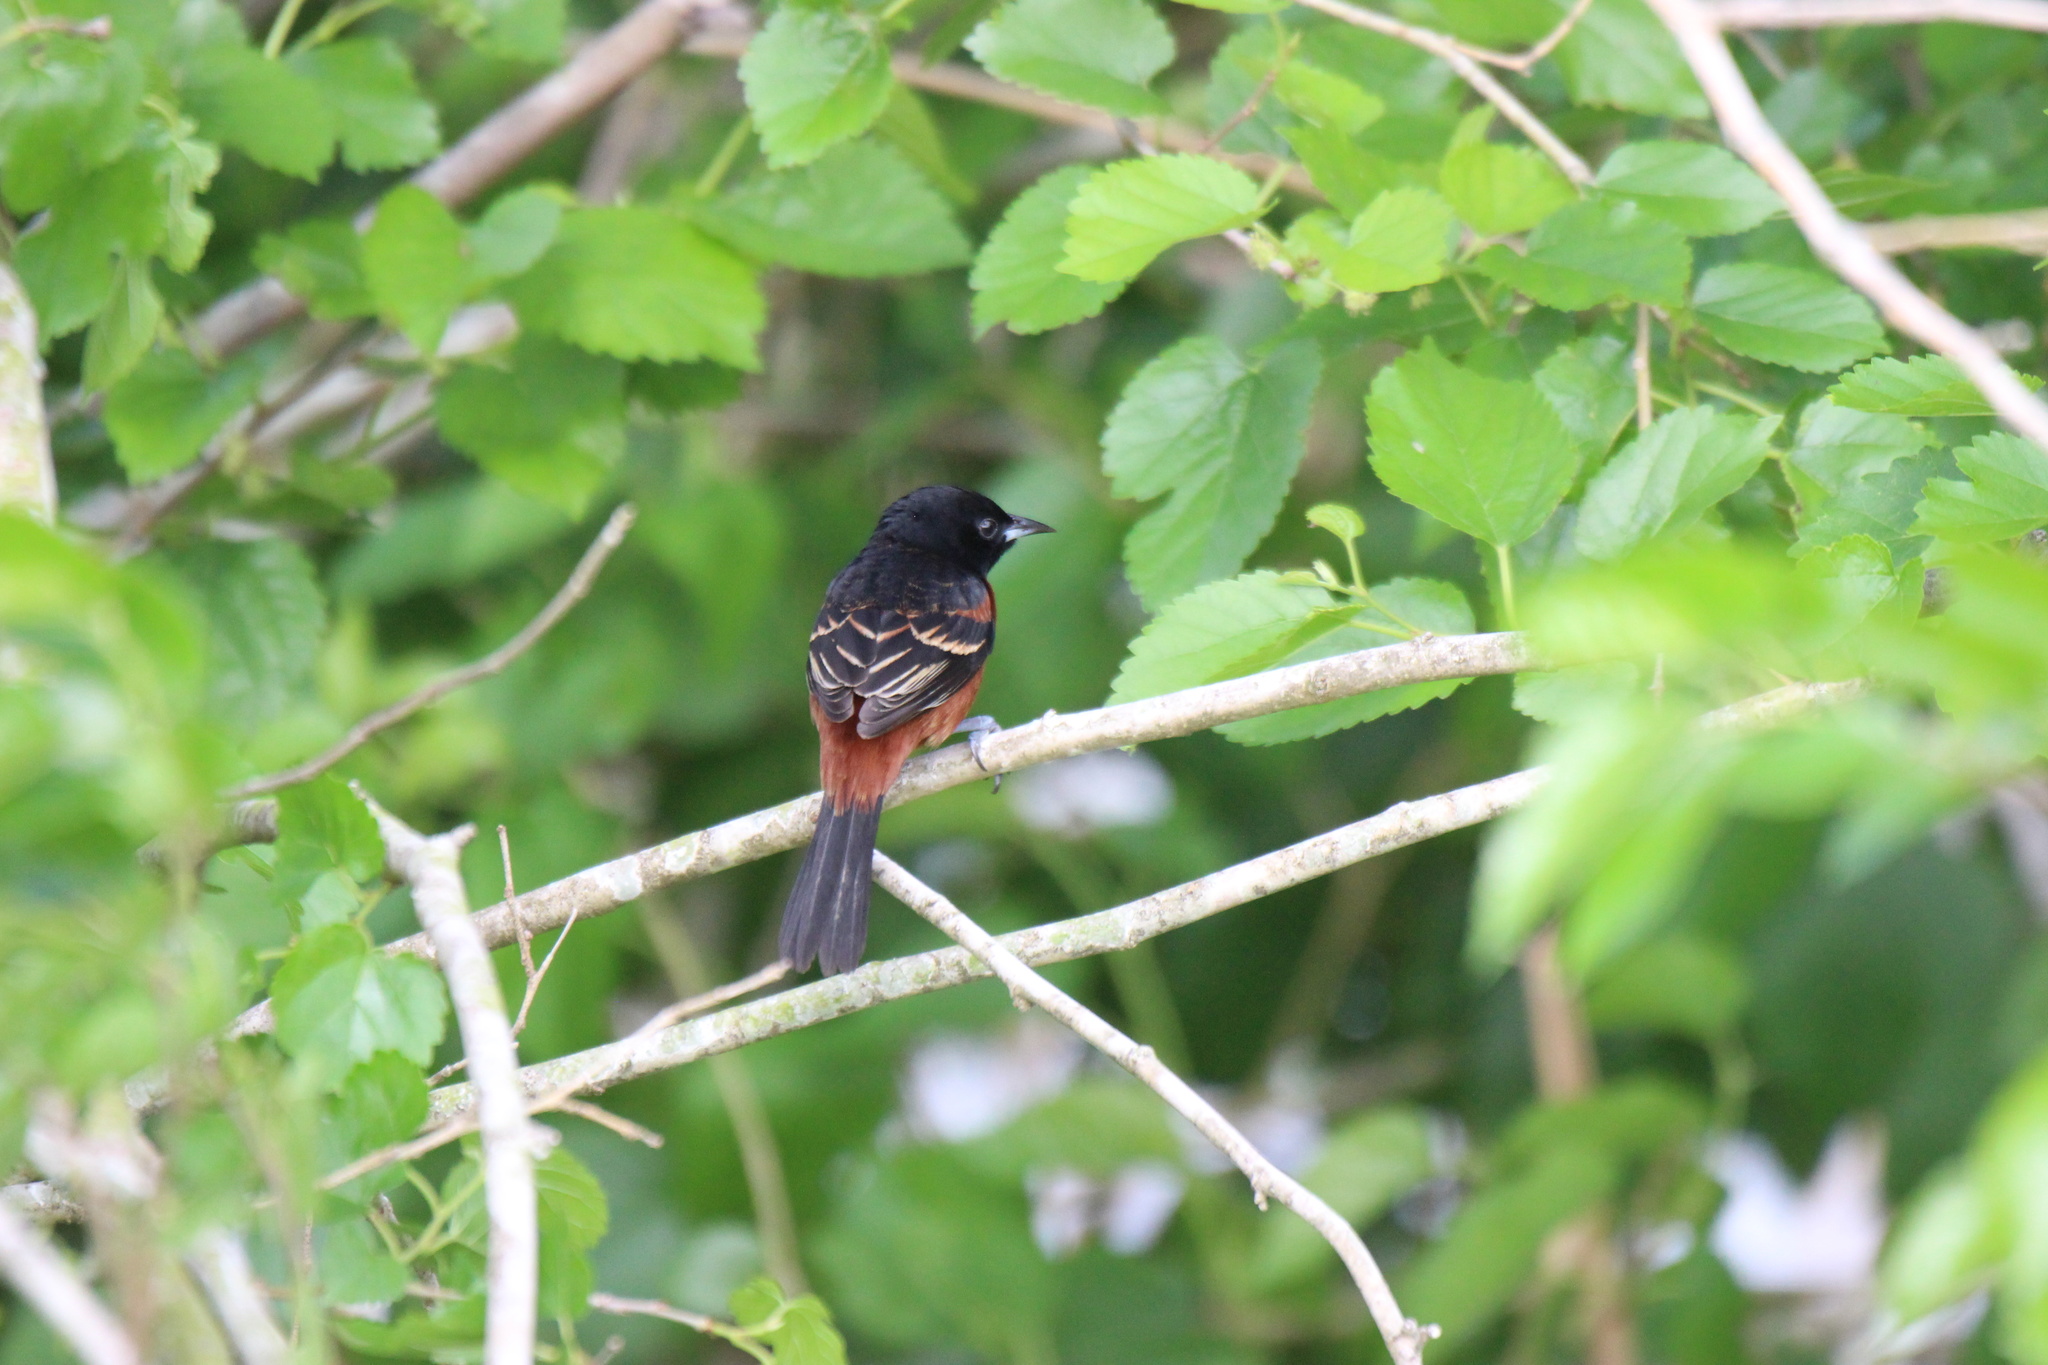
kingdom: Animalia
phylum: Chordata
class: Aves
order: Passeriformes
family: Icteridae
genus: Icterus
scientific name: Icterus spurius
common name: Orchard oriole
